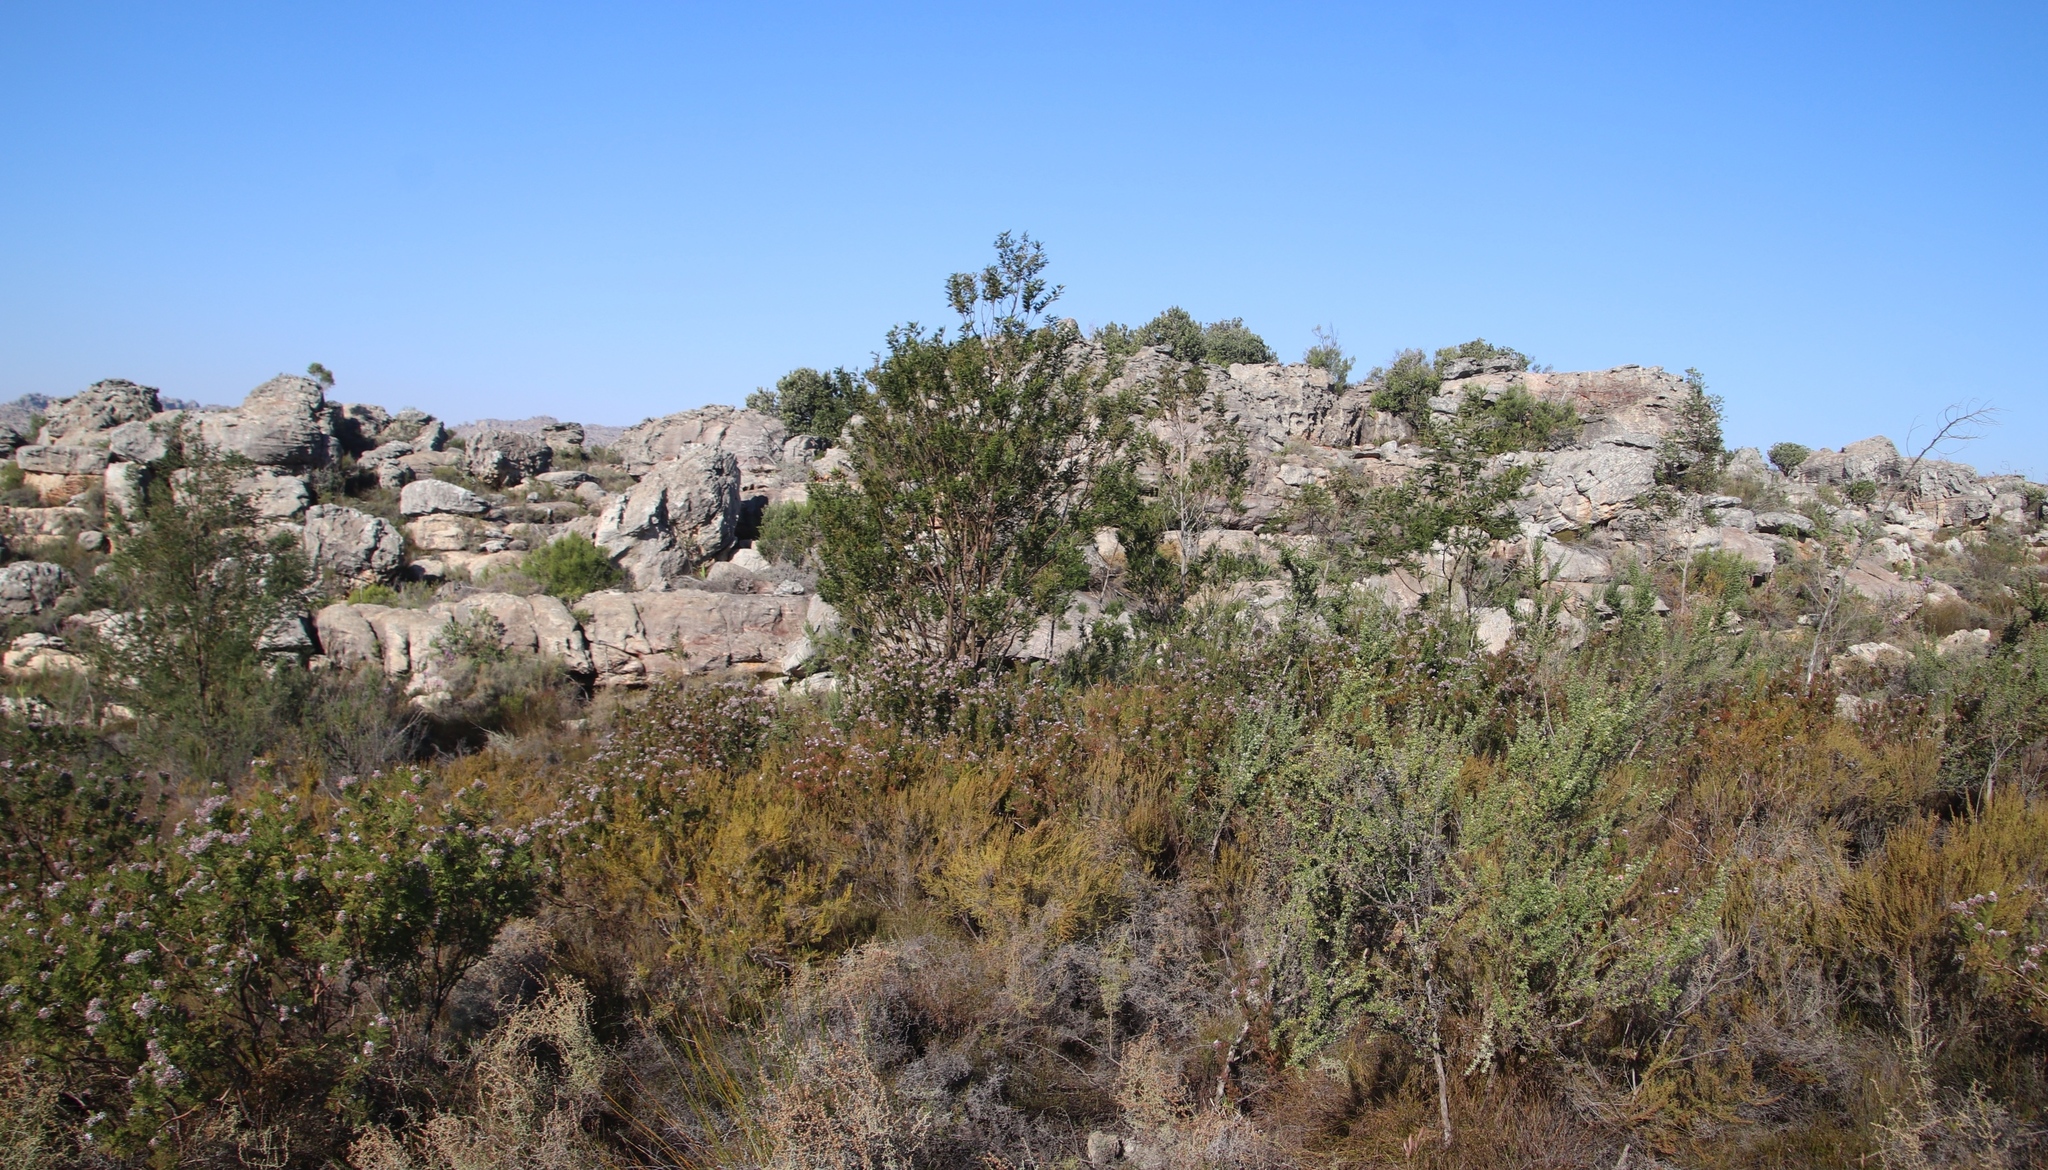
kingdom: Plantae
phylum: Tracheophyta
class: Magnoliopsida
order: Fabales
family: Fabaceae
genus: Acacia
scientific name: Acacia mearnsii
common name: Black wattle
